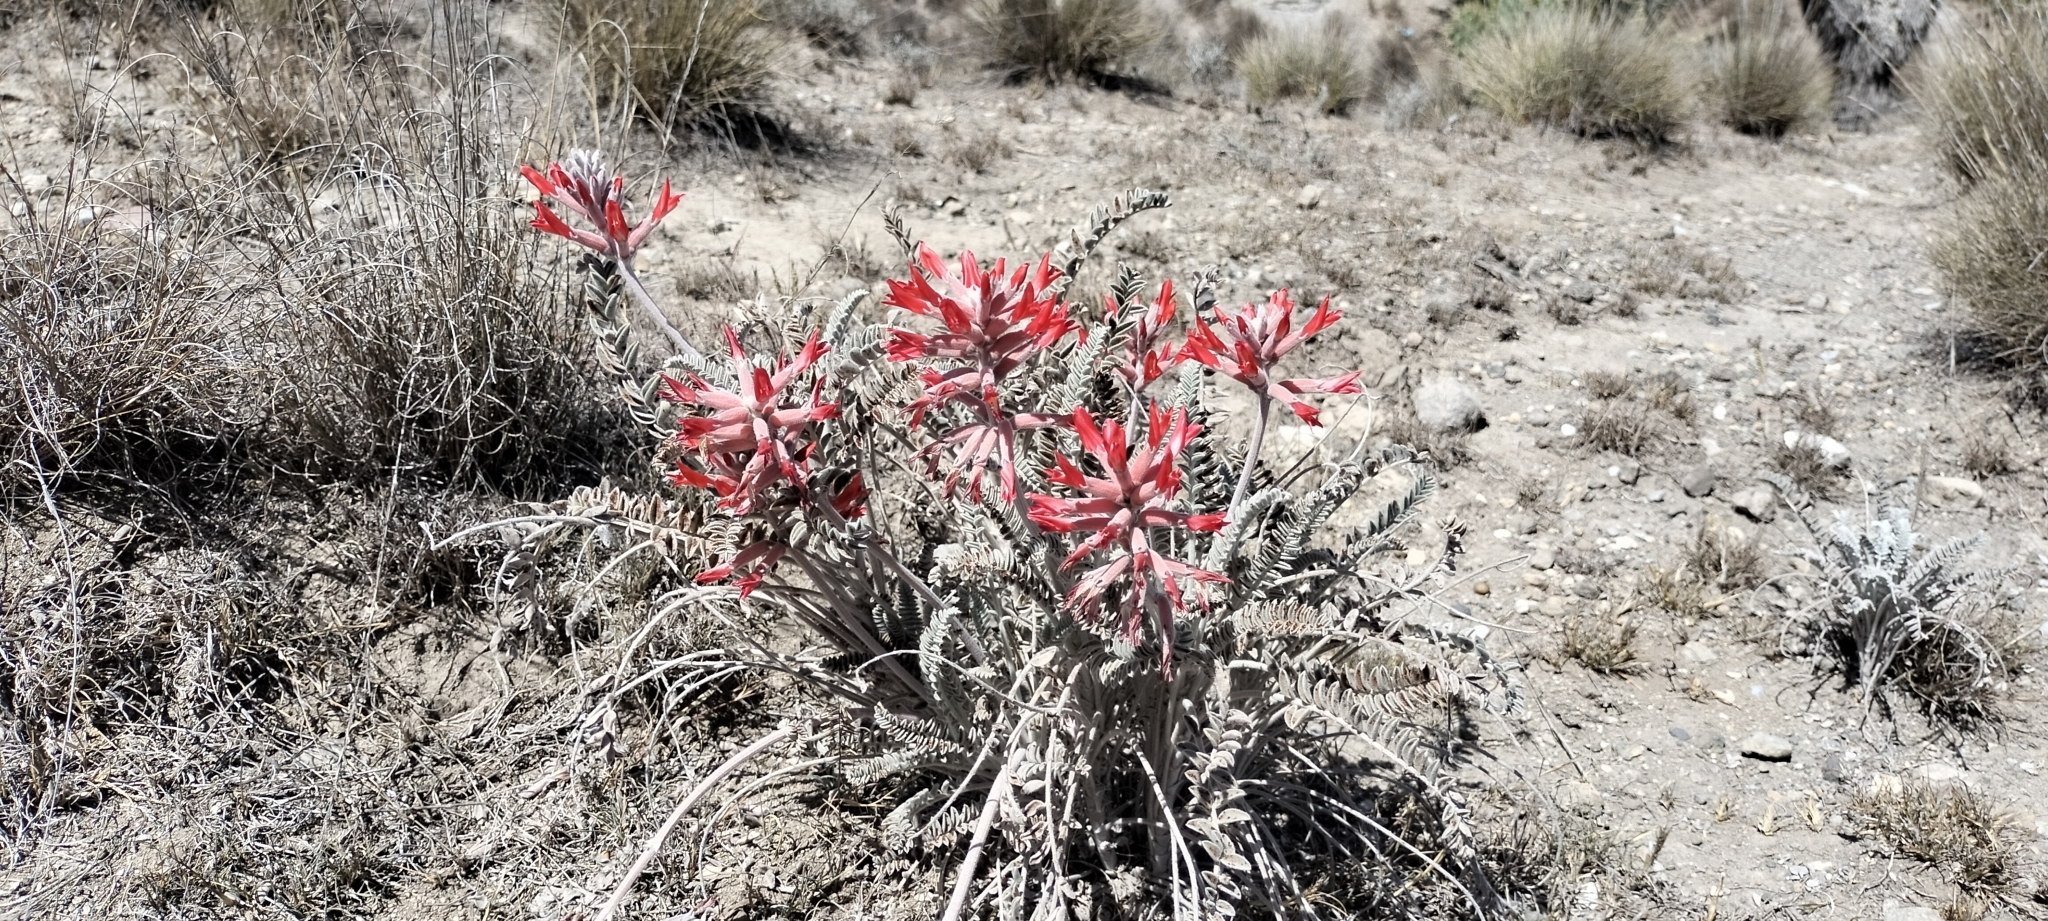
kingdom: Plantae
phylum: Tracheophyta
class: Magnoliopsida
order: Fabales
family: Fabaceae
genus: Astragalus
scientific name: Astragalus helleri
